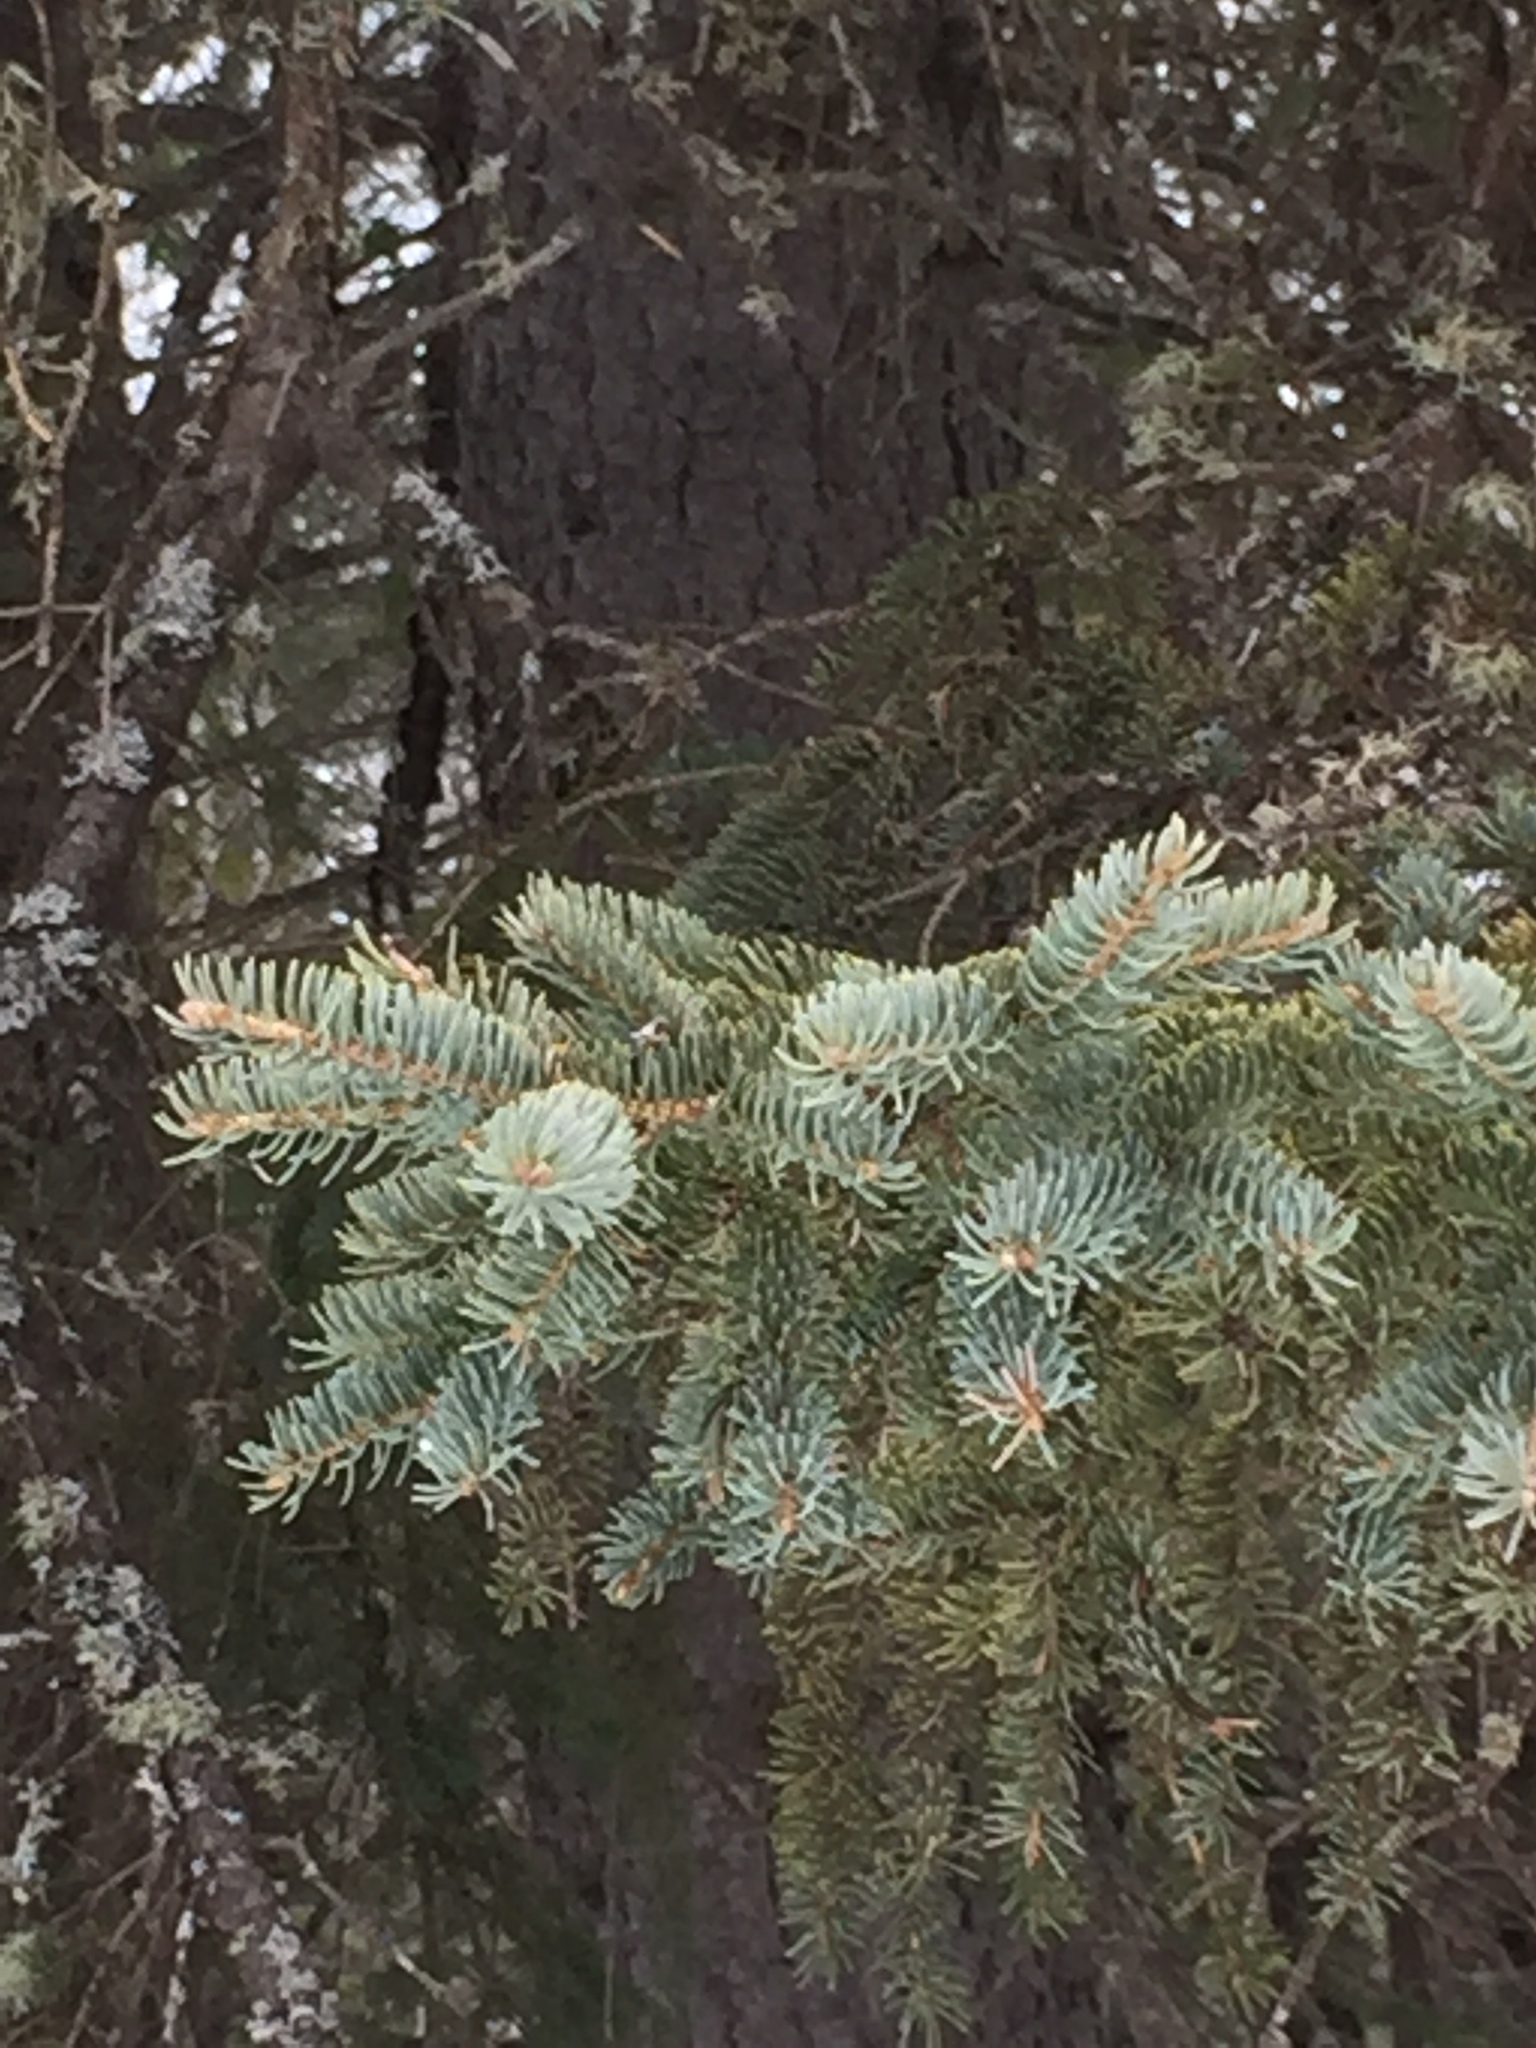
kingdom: Plantae
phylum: Tracheophyta
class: Pinopsida
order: Pinales
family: Pinaceae
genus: Picea
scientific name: Picea glauca
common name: White spruce
